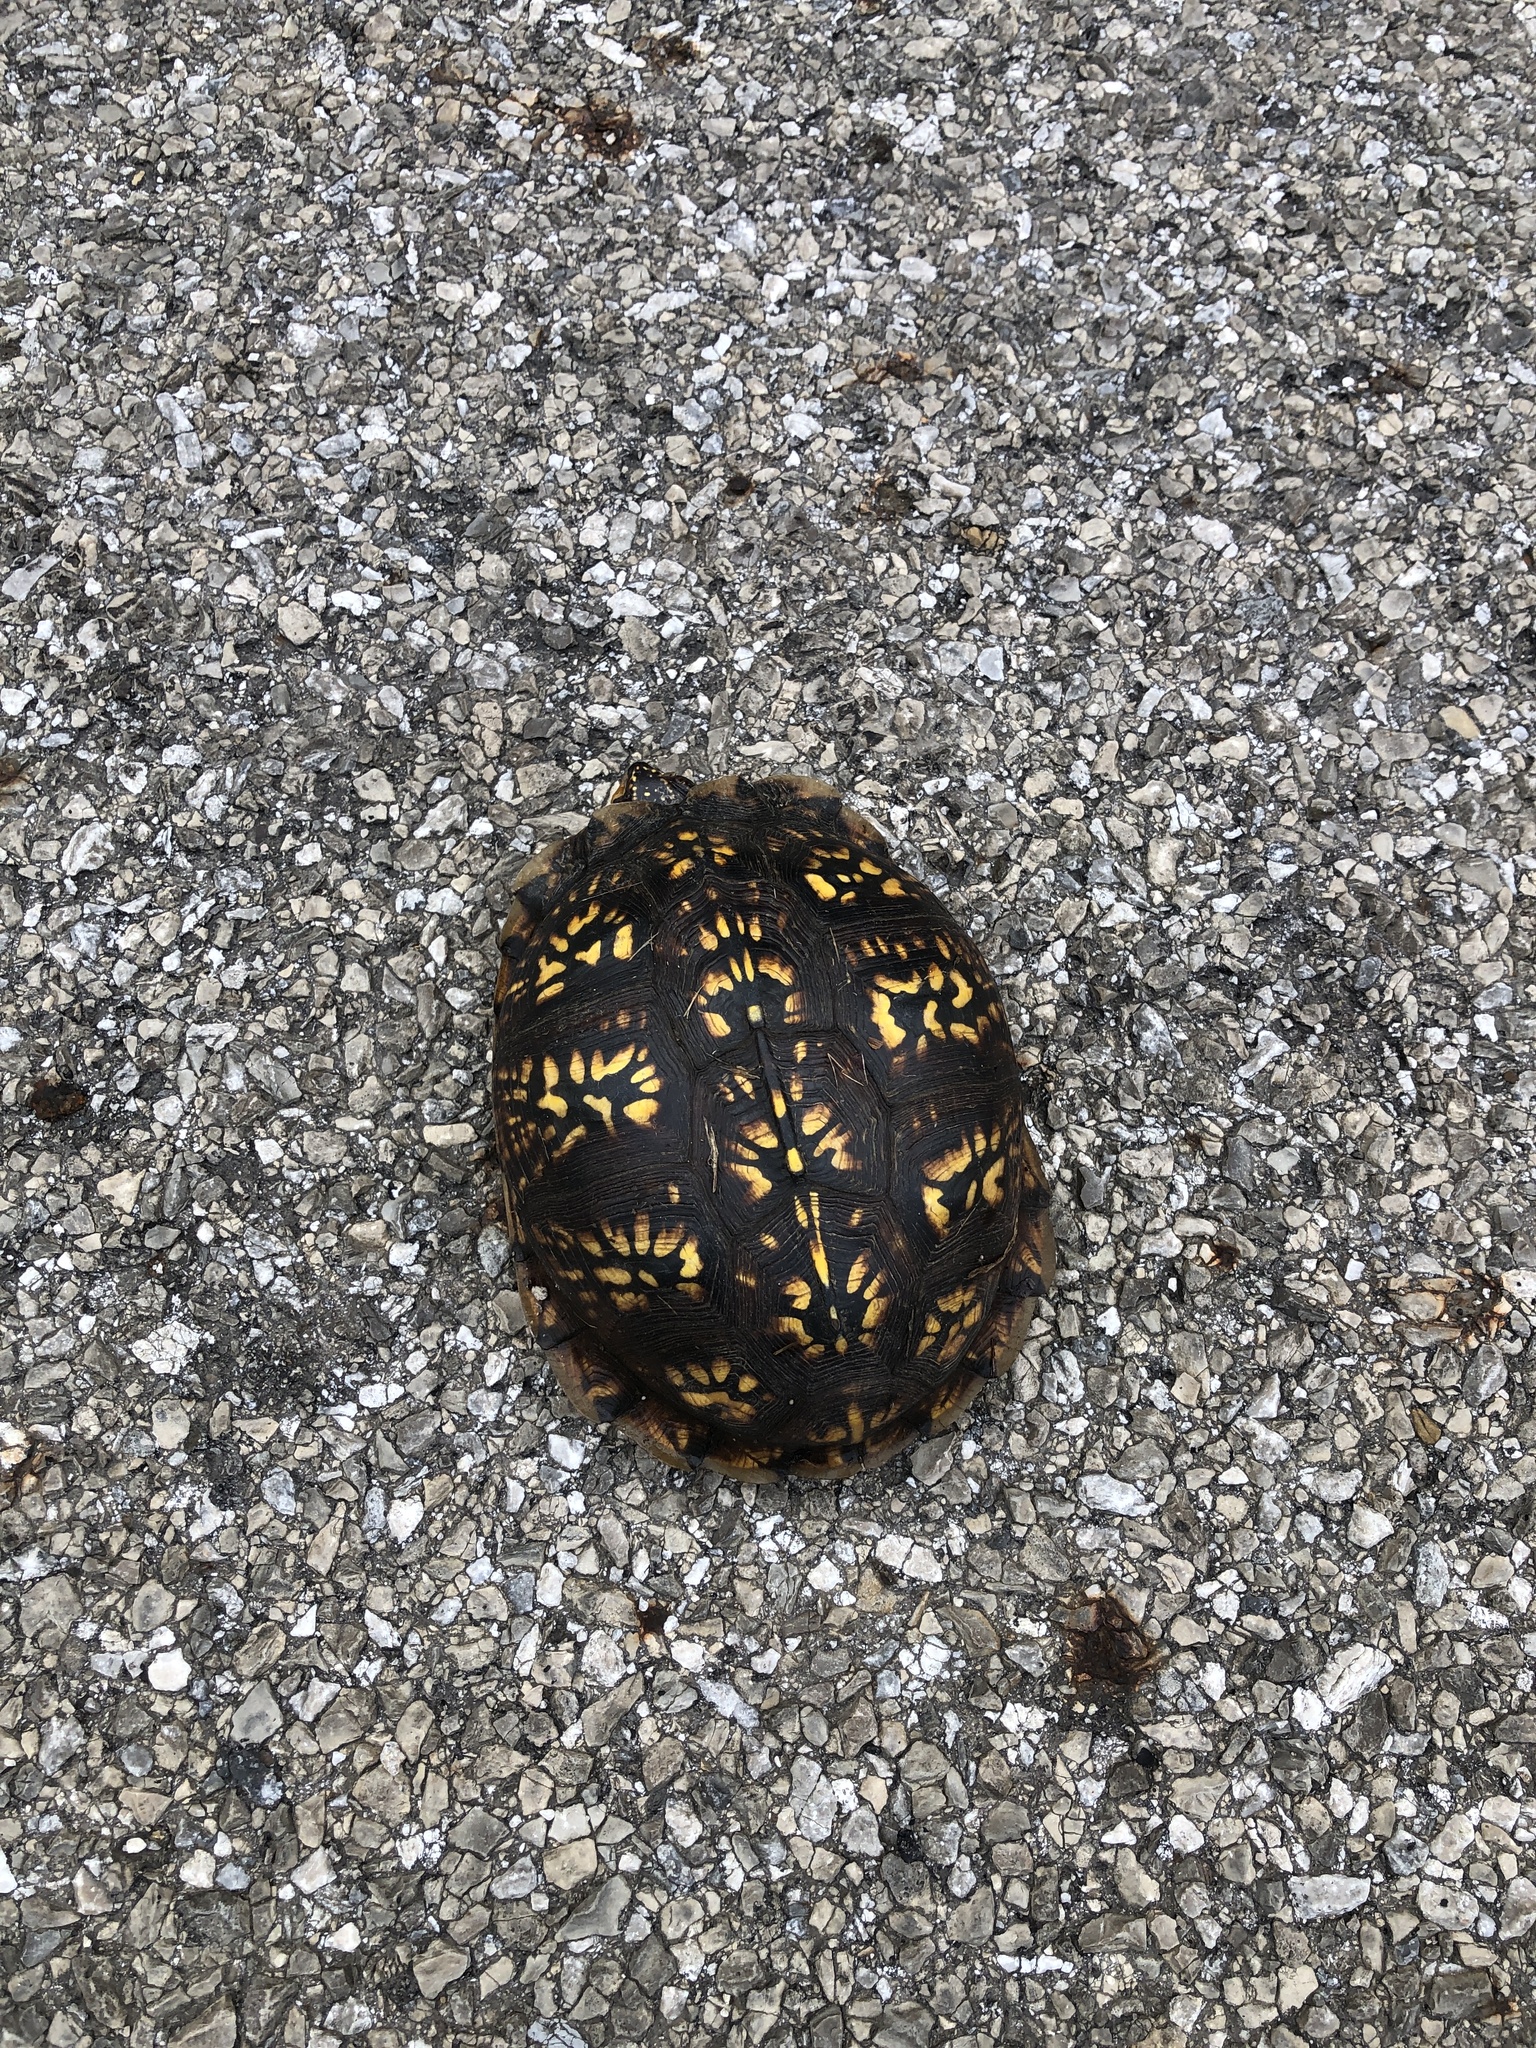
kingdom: Animalia
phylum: Chordata
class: Testudines
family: Emydidae
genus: Terrapene
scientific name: Terrapene carolina
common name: Common box turtle
